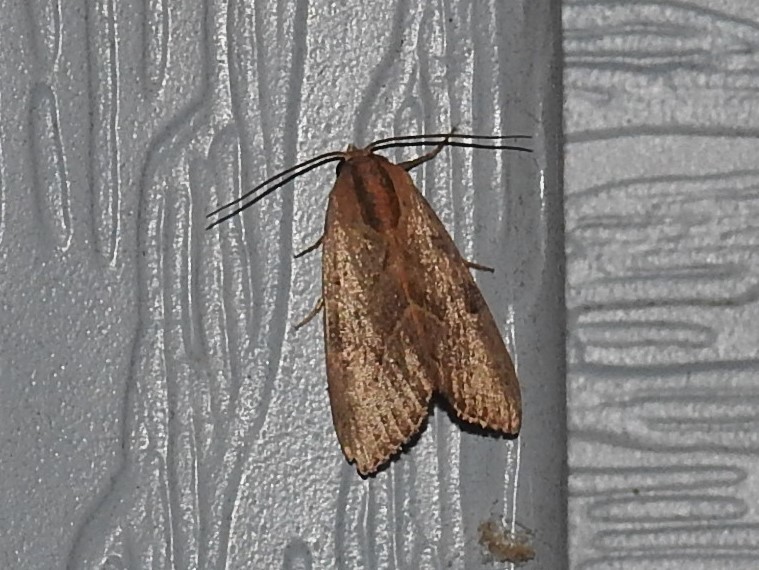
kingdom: Animalia
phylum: Arthropoda
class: Insecta
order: Lepidoptera
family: Noctuidae
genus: Galgula
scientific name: Galgula partita
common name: Wedgeling
